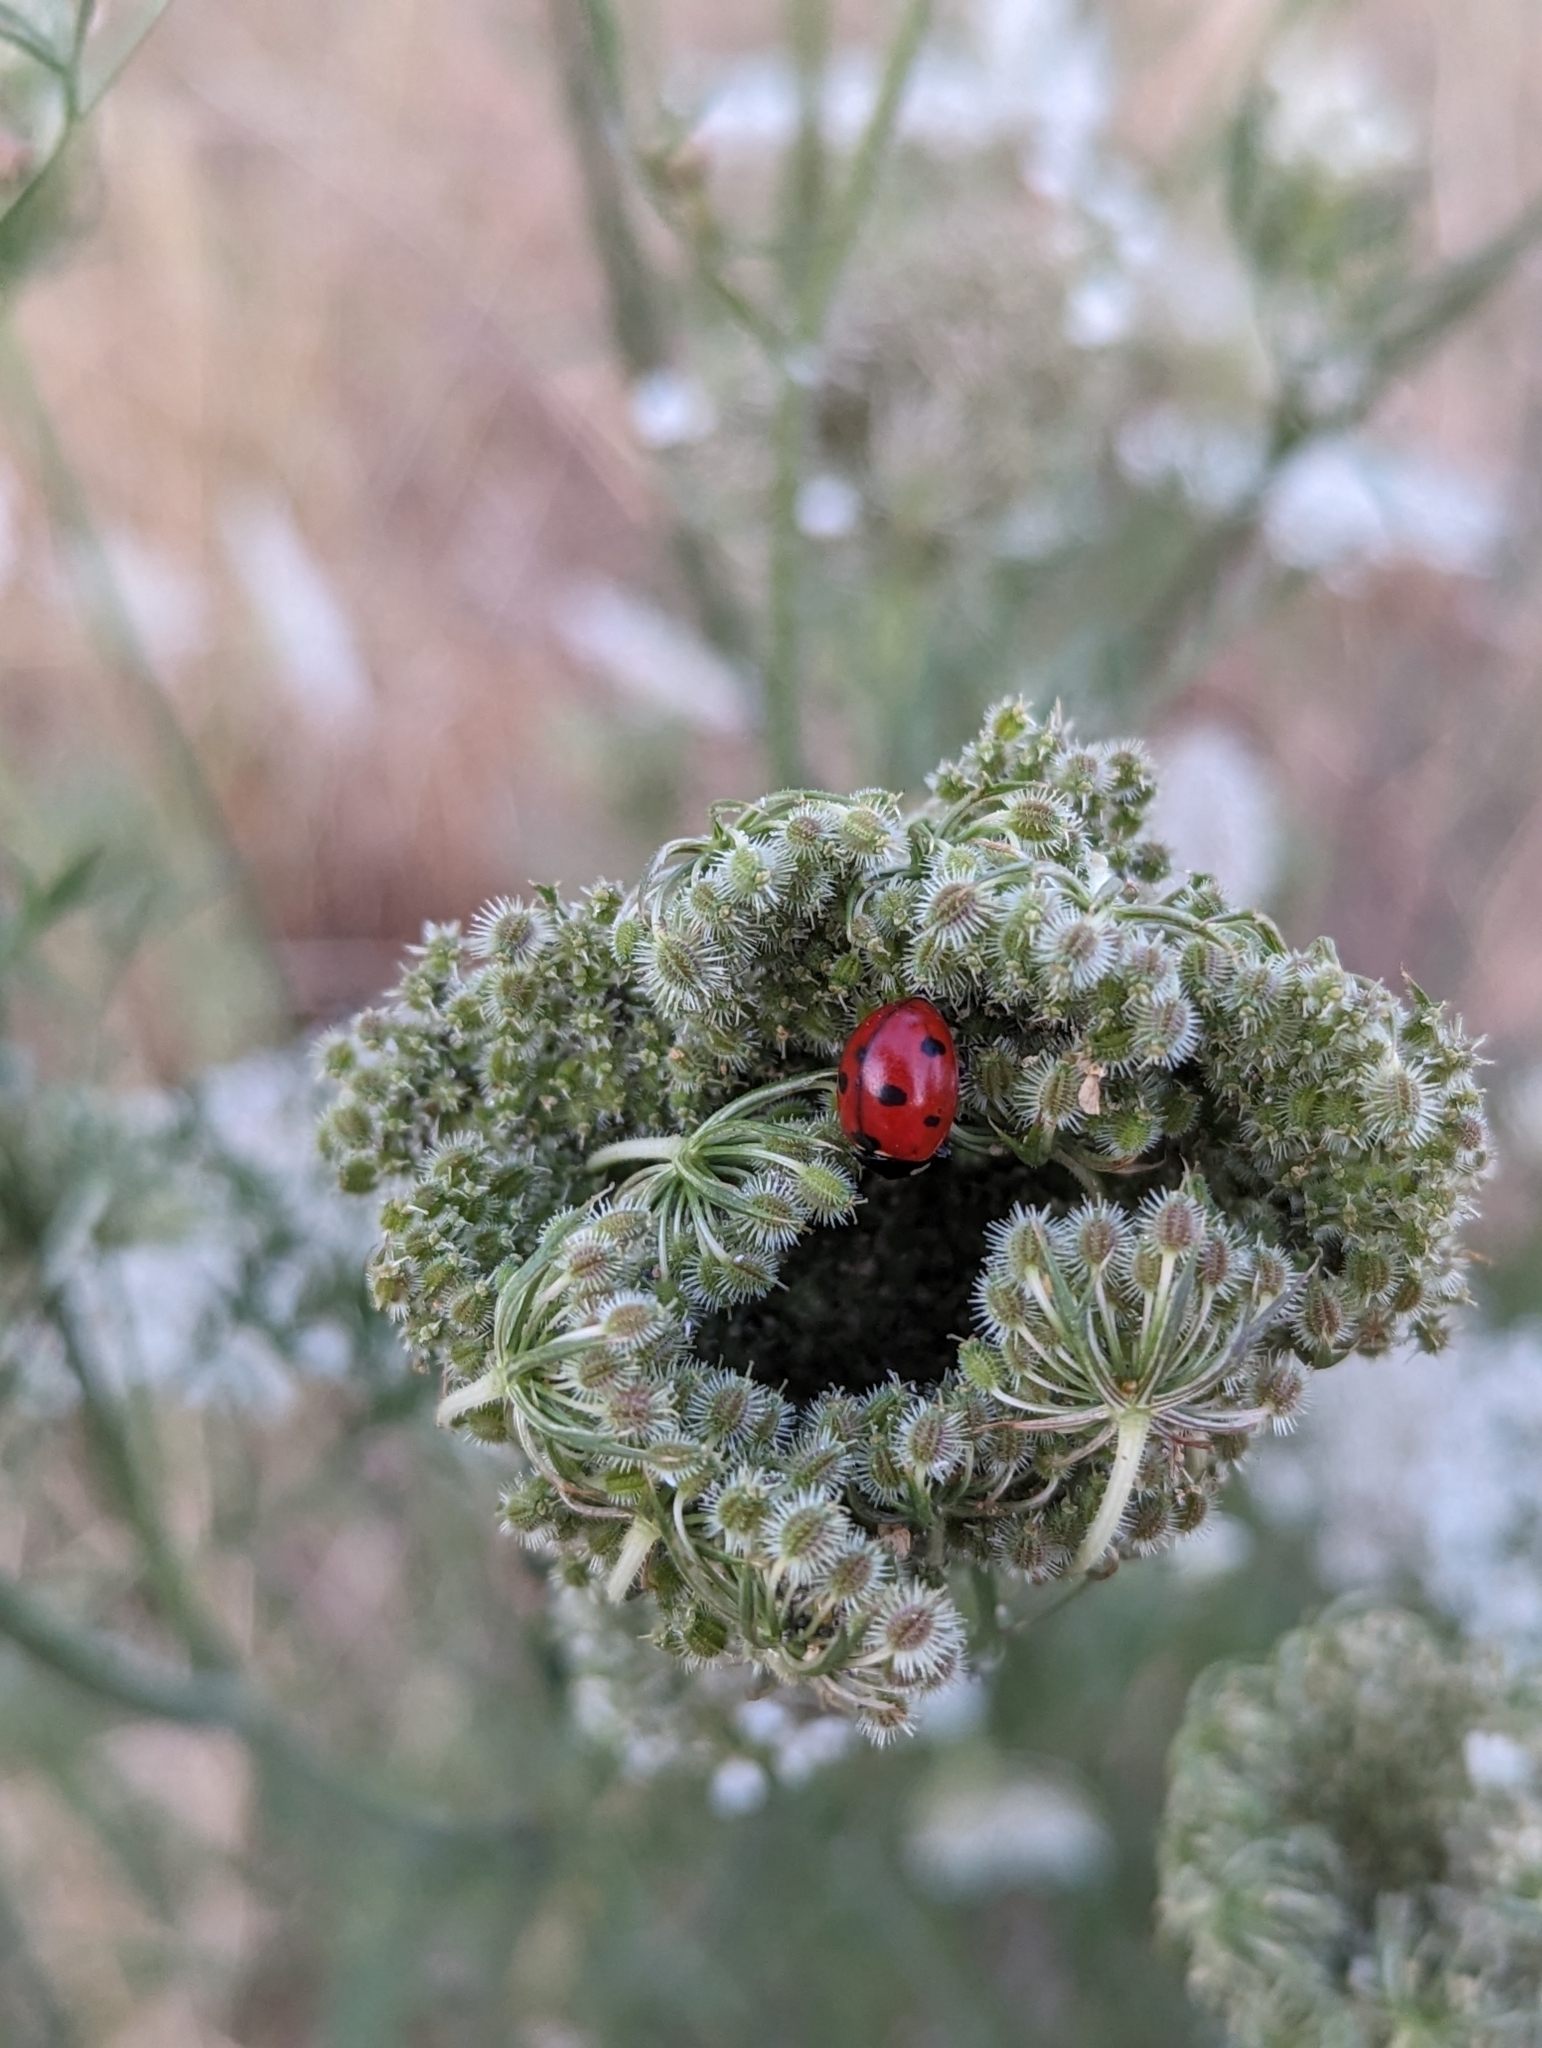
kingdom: Animalia
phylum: Arthropoda
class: Insecta
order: Coleoptera
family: Coccinellidae
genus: Coccinella
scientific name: Coccinella septempunctata
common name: Sevenspotted lady beetle
